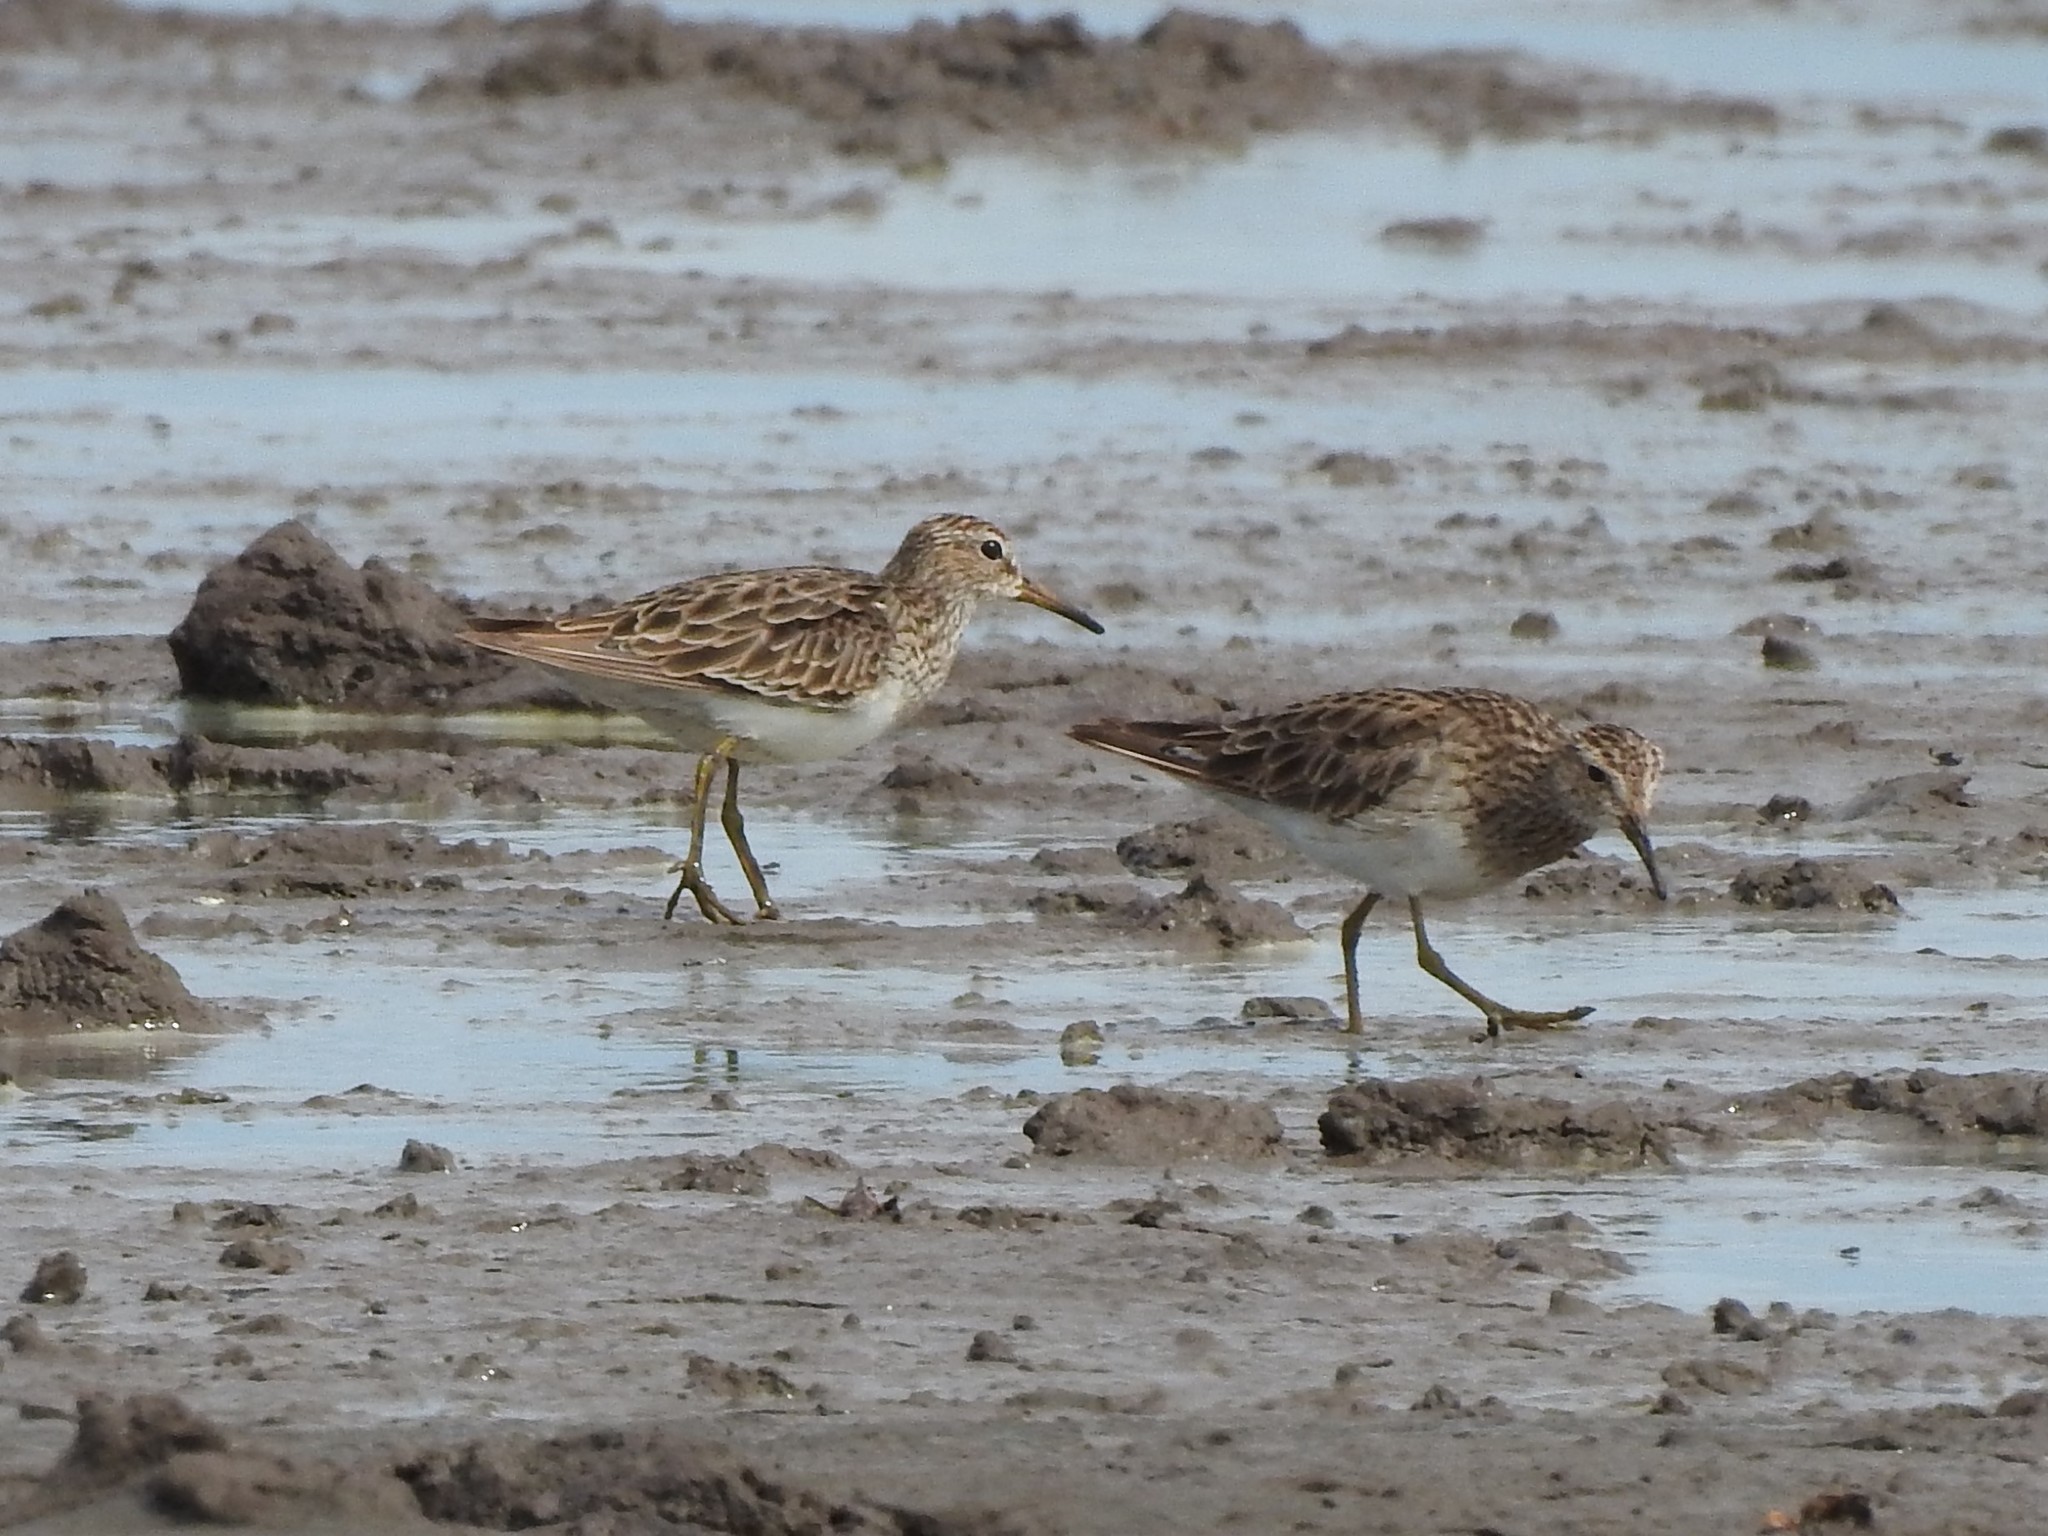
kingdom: Animalia
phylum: Chordata
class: Aves
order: Charadriiformes
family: Scolopacidae
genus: Calidris
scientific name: Calidris melanotos
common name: Pectoral sandpiper
